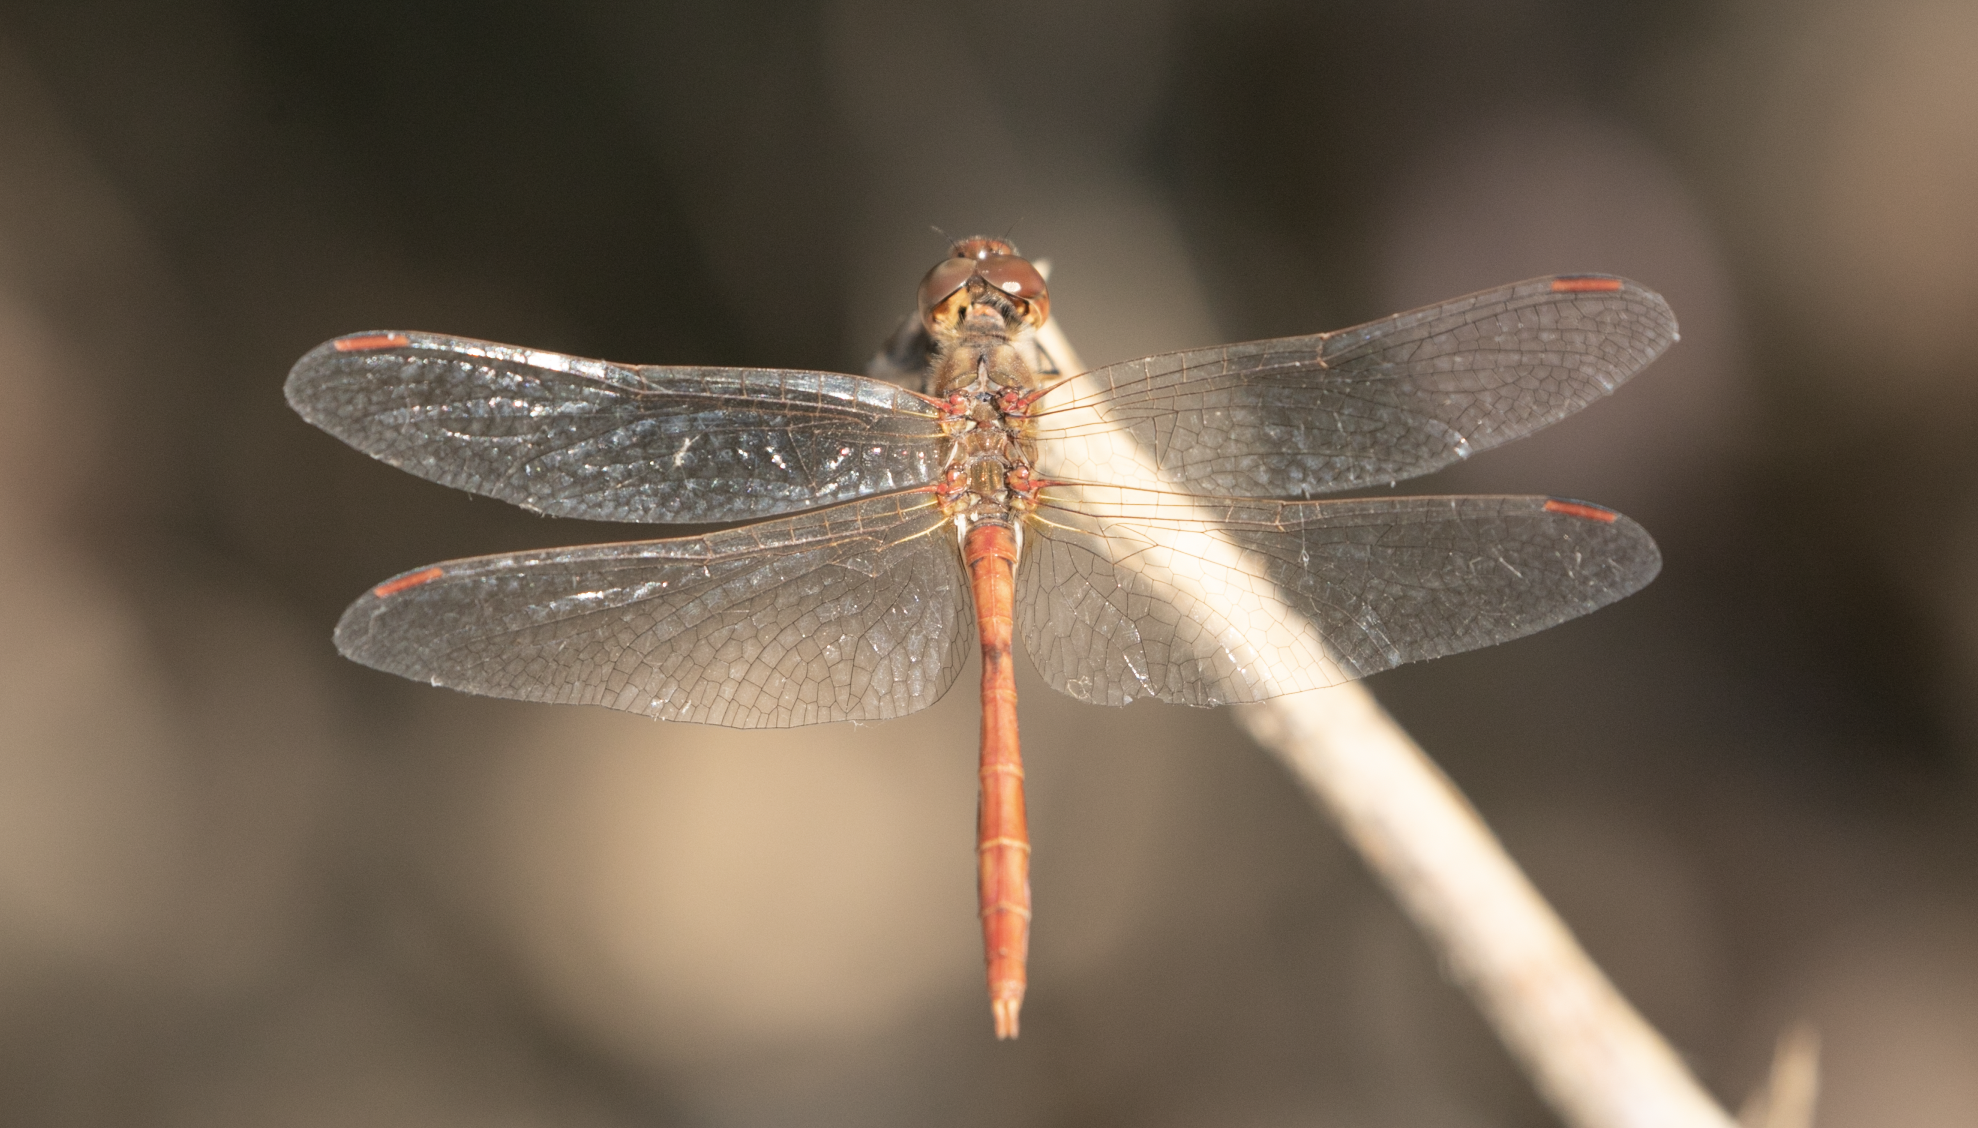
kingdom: Animalia
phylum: Arthropoda
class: Insecta
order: Odonata
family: Libellulidae
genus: Sympetrum
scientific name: Sympetrum meridionale
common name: Southern darter
